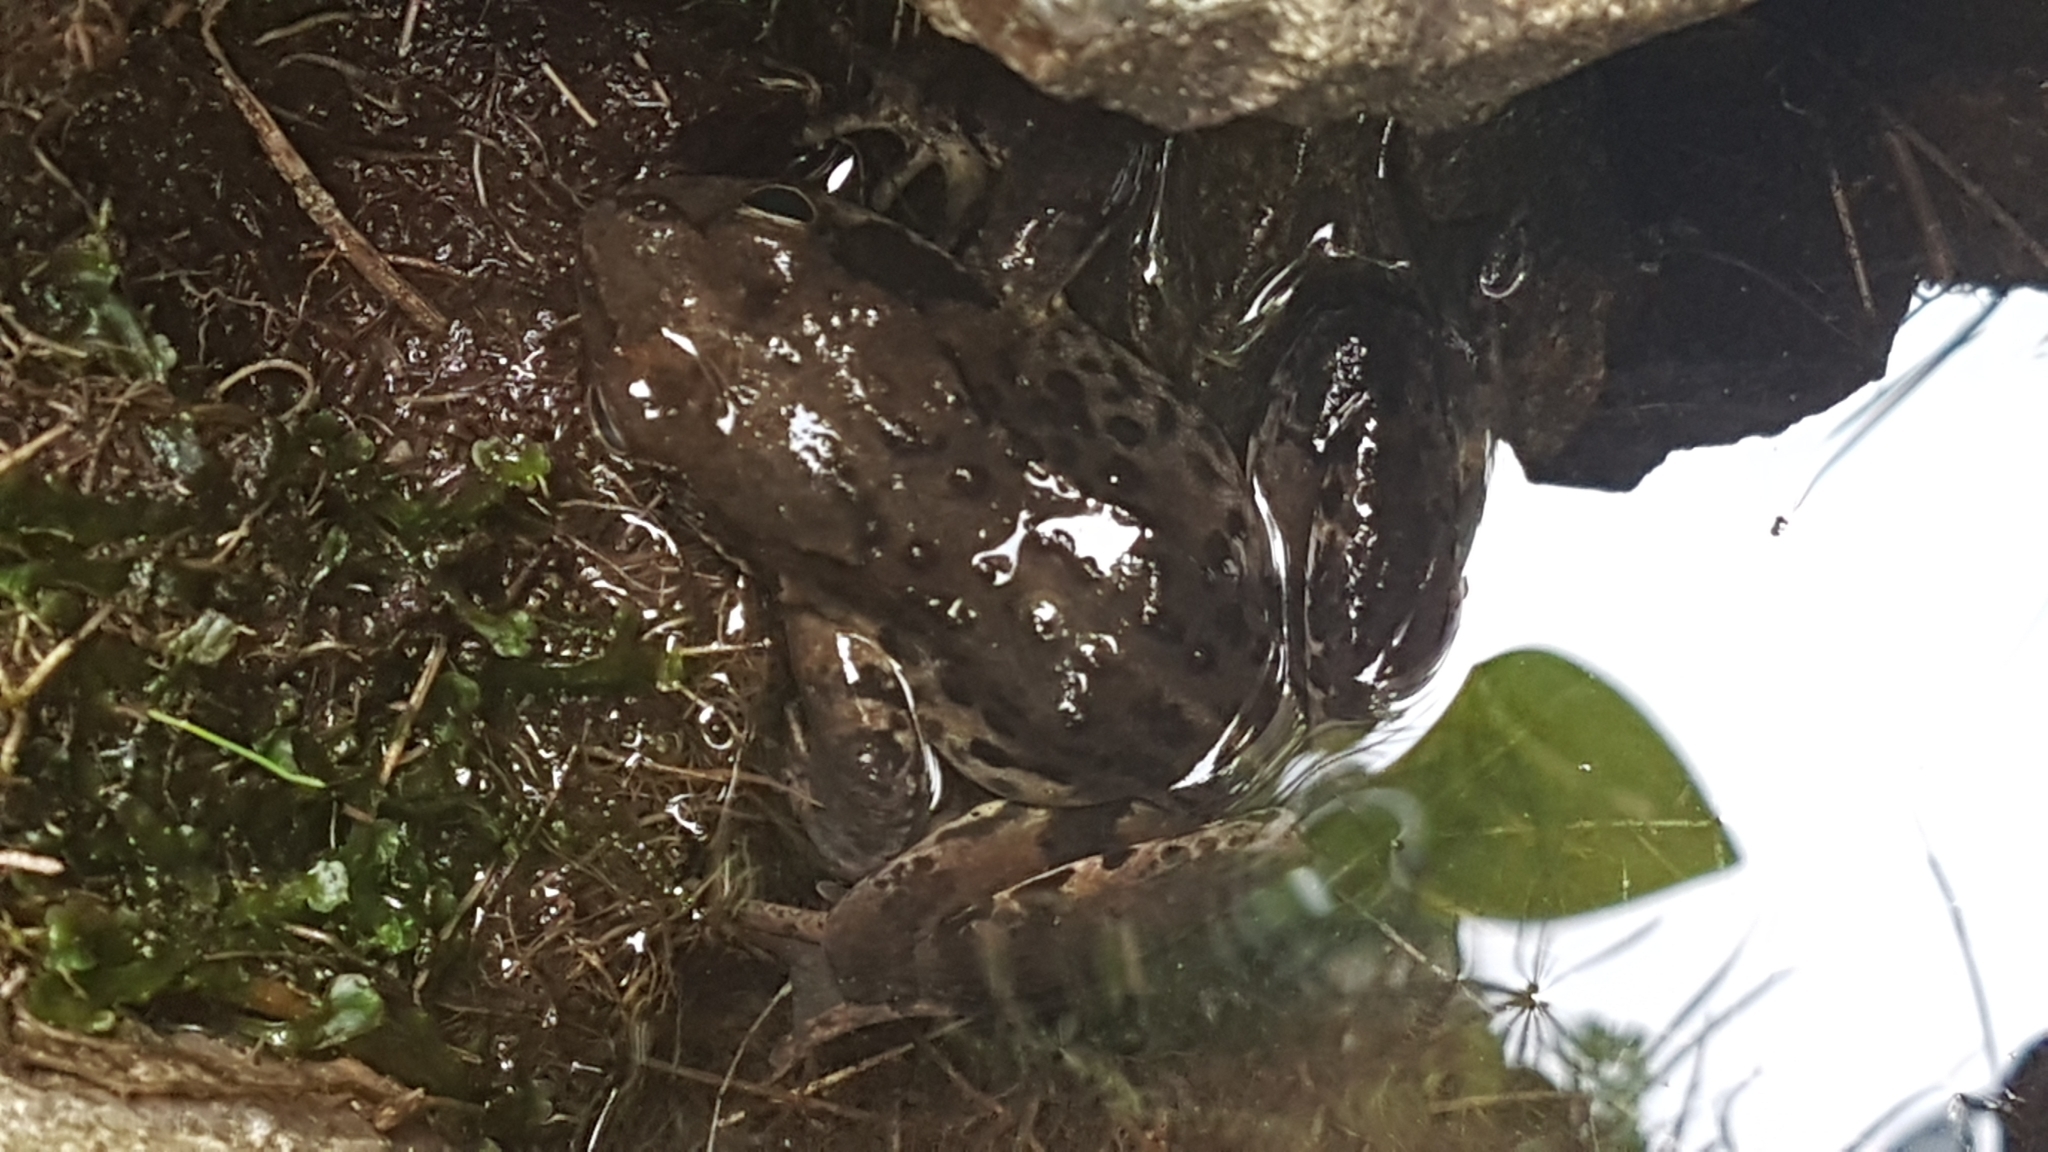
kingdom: Animalia
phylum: Chordata
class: Amphibia
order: Anura
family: Ranidae
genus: Rana
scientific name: Rana temporaria
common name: Common frog
